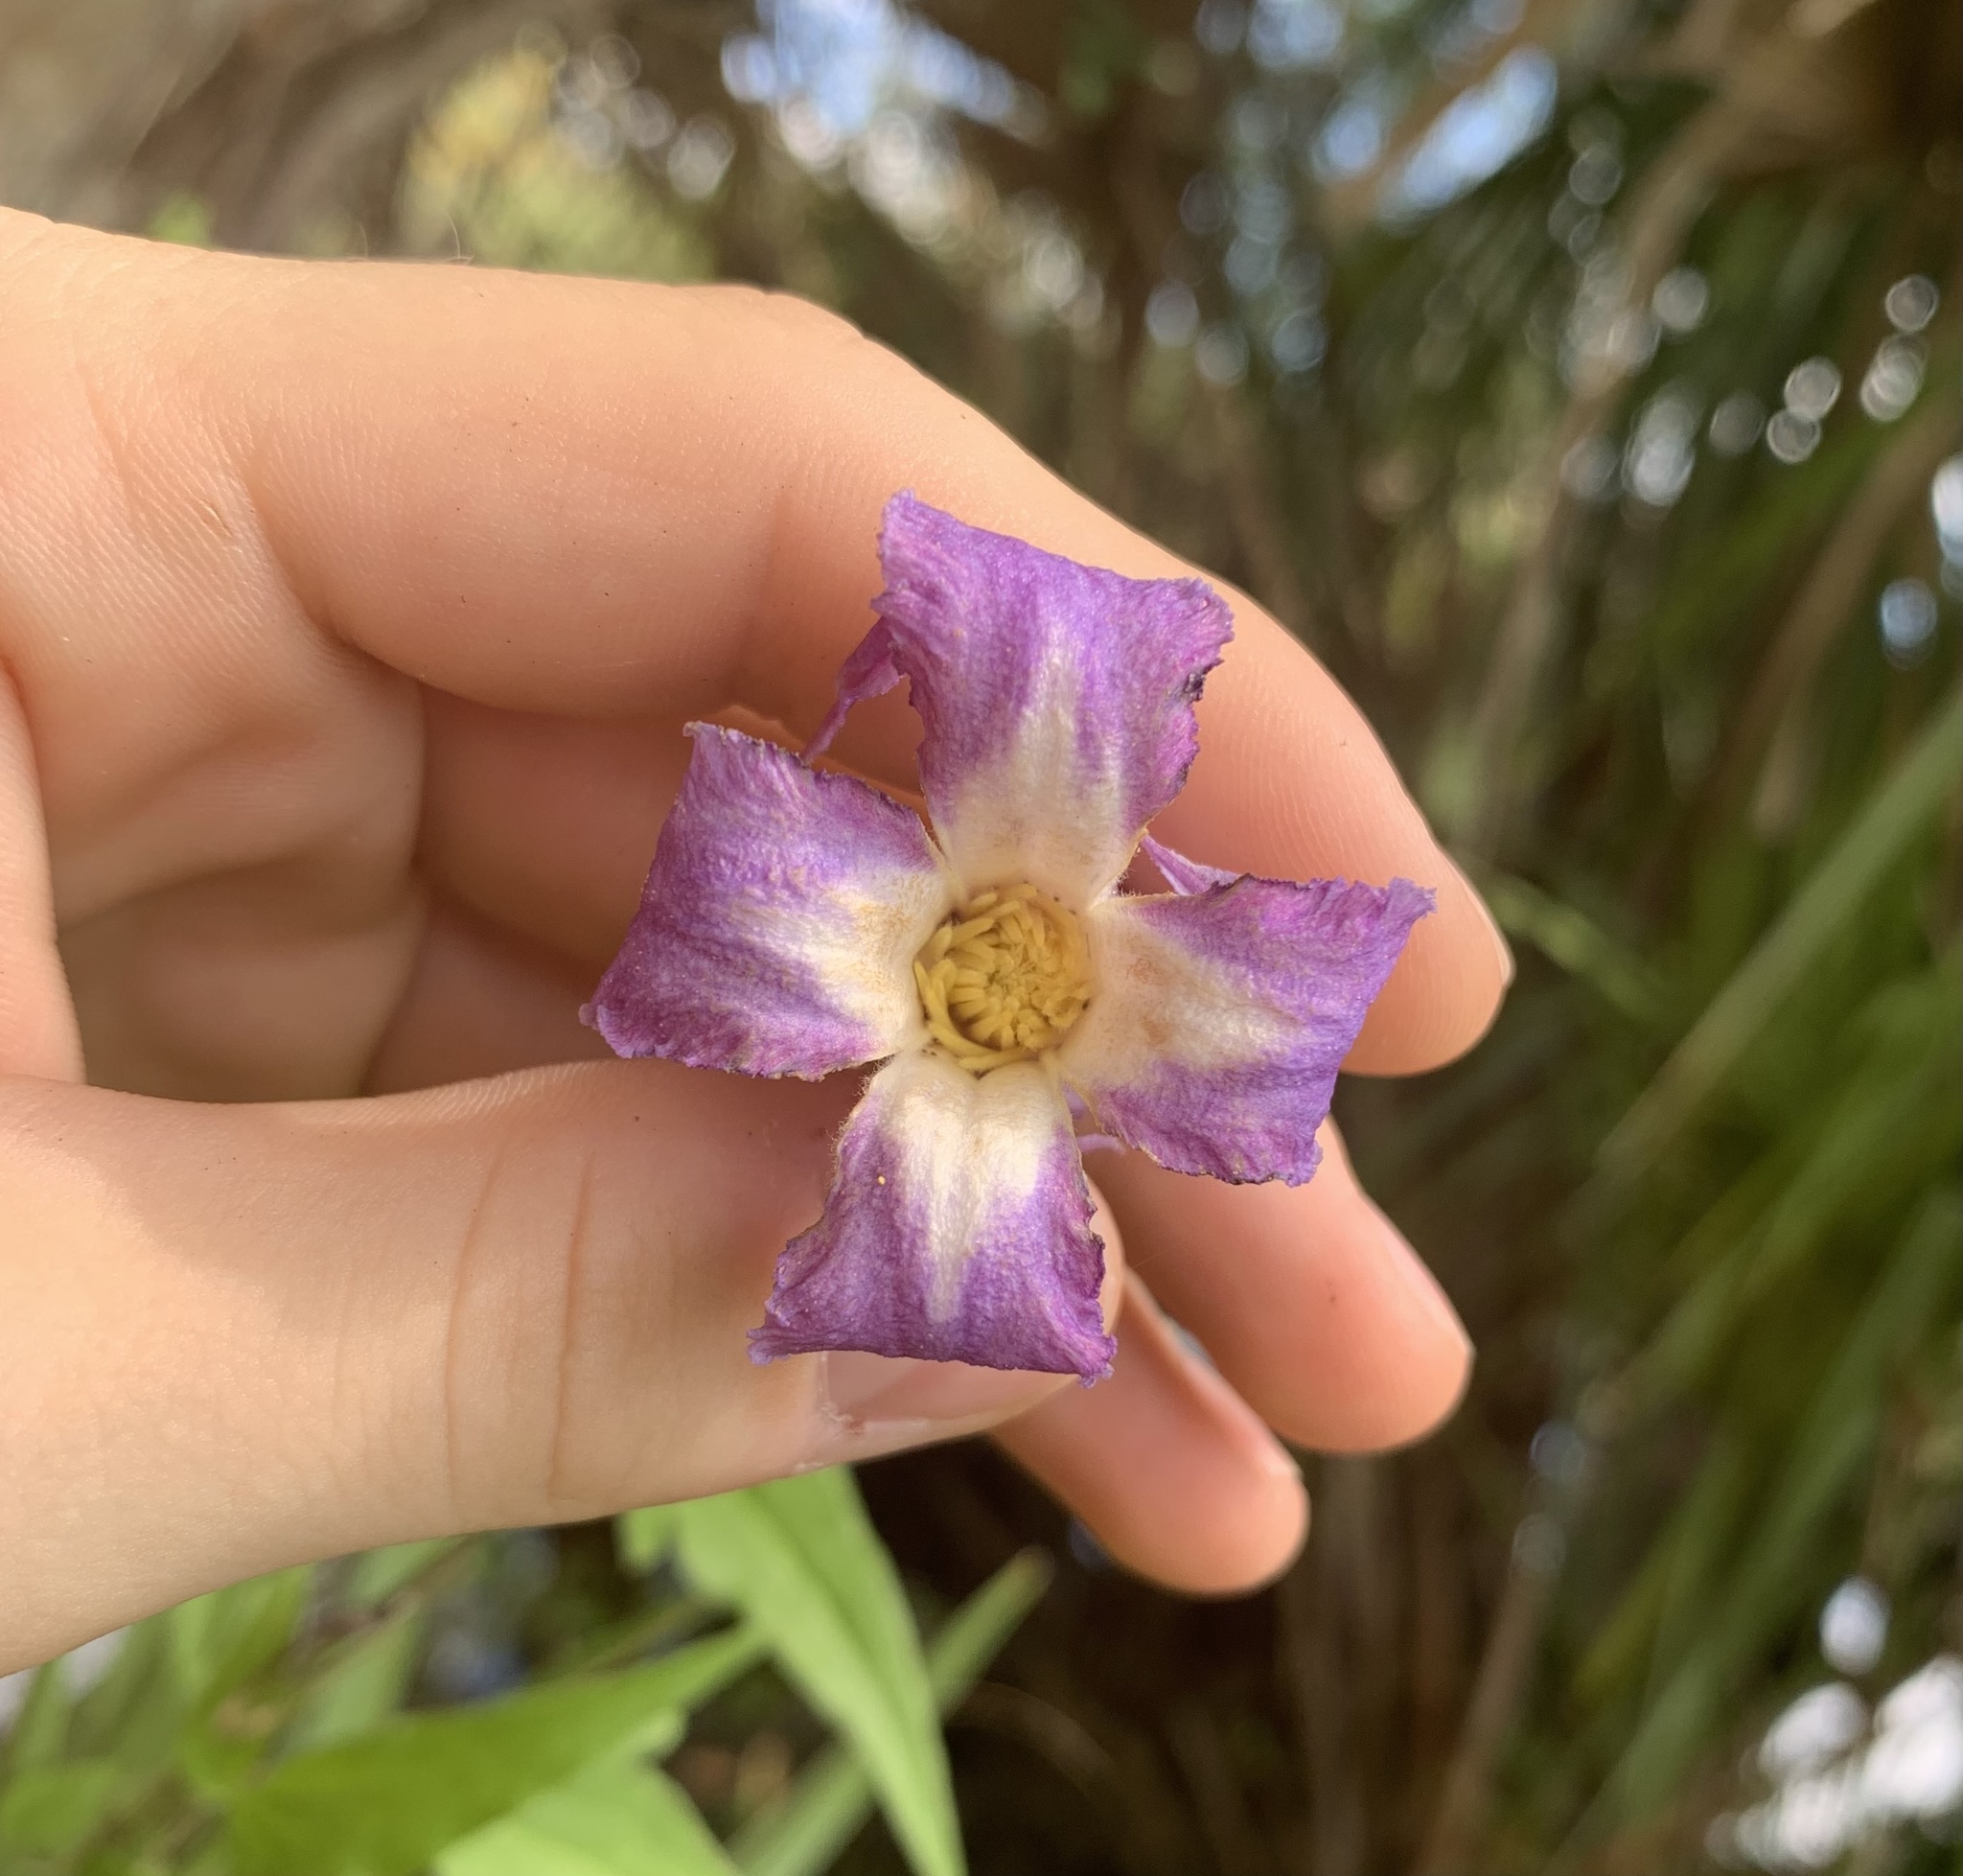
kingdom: Plantae
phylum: Tracheophyta
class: Magnoliopsida
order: Ranunculales
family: Ranunculaceae
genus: Clematis
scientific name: Clematis crispa
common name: Curly clematis
